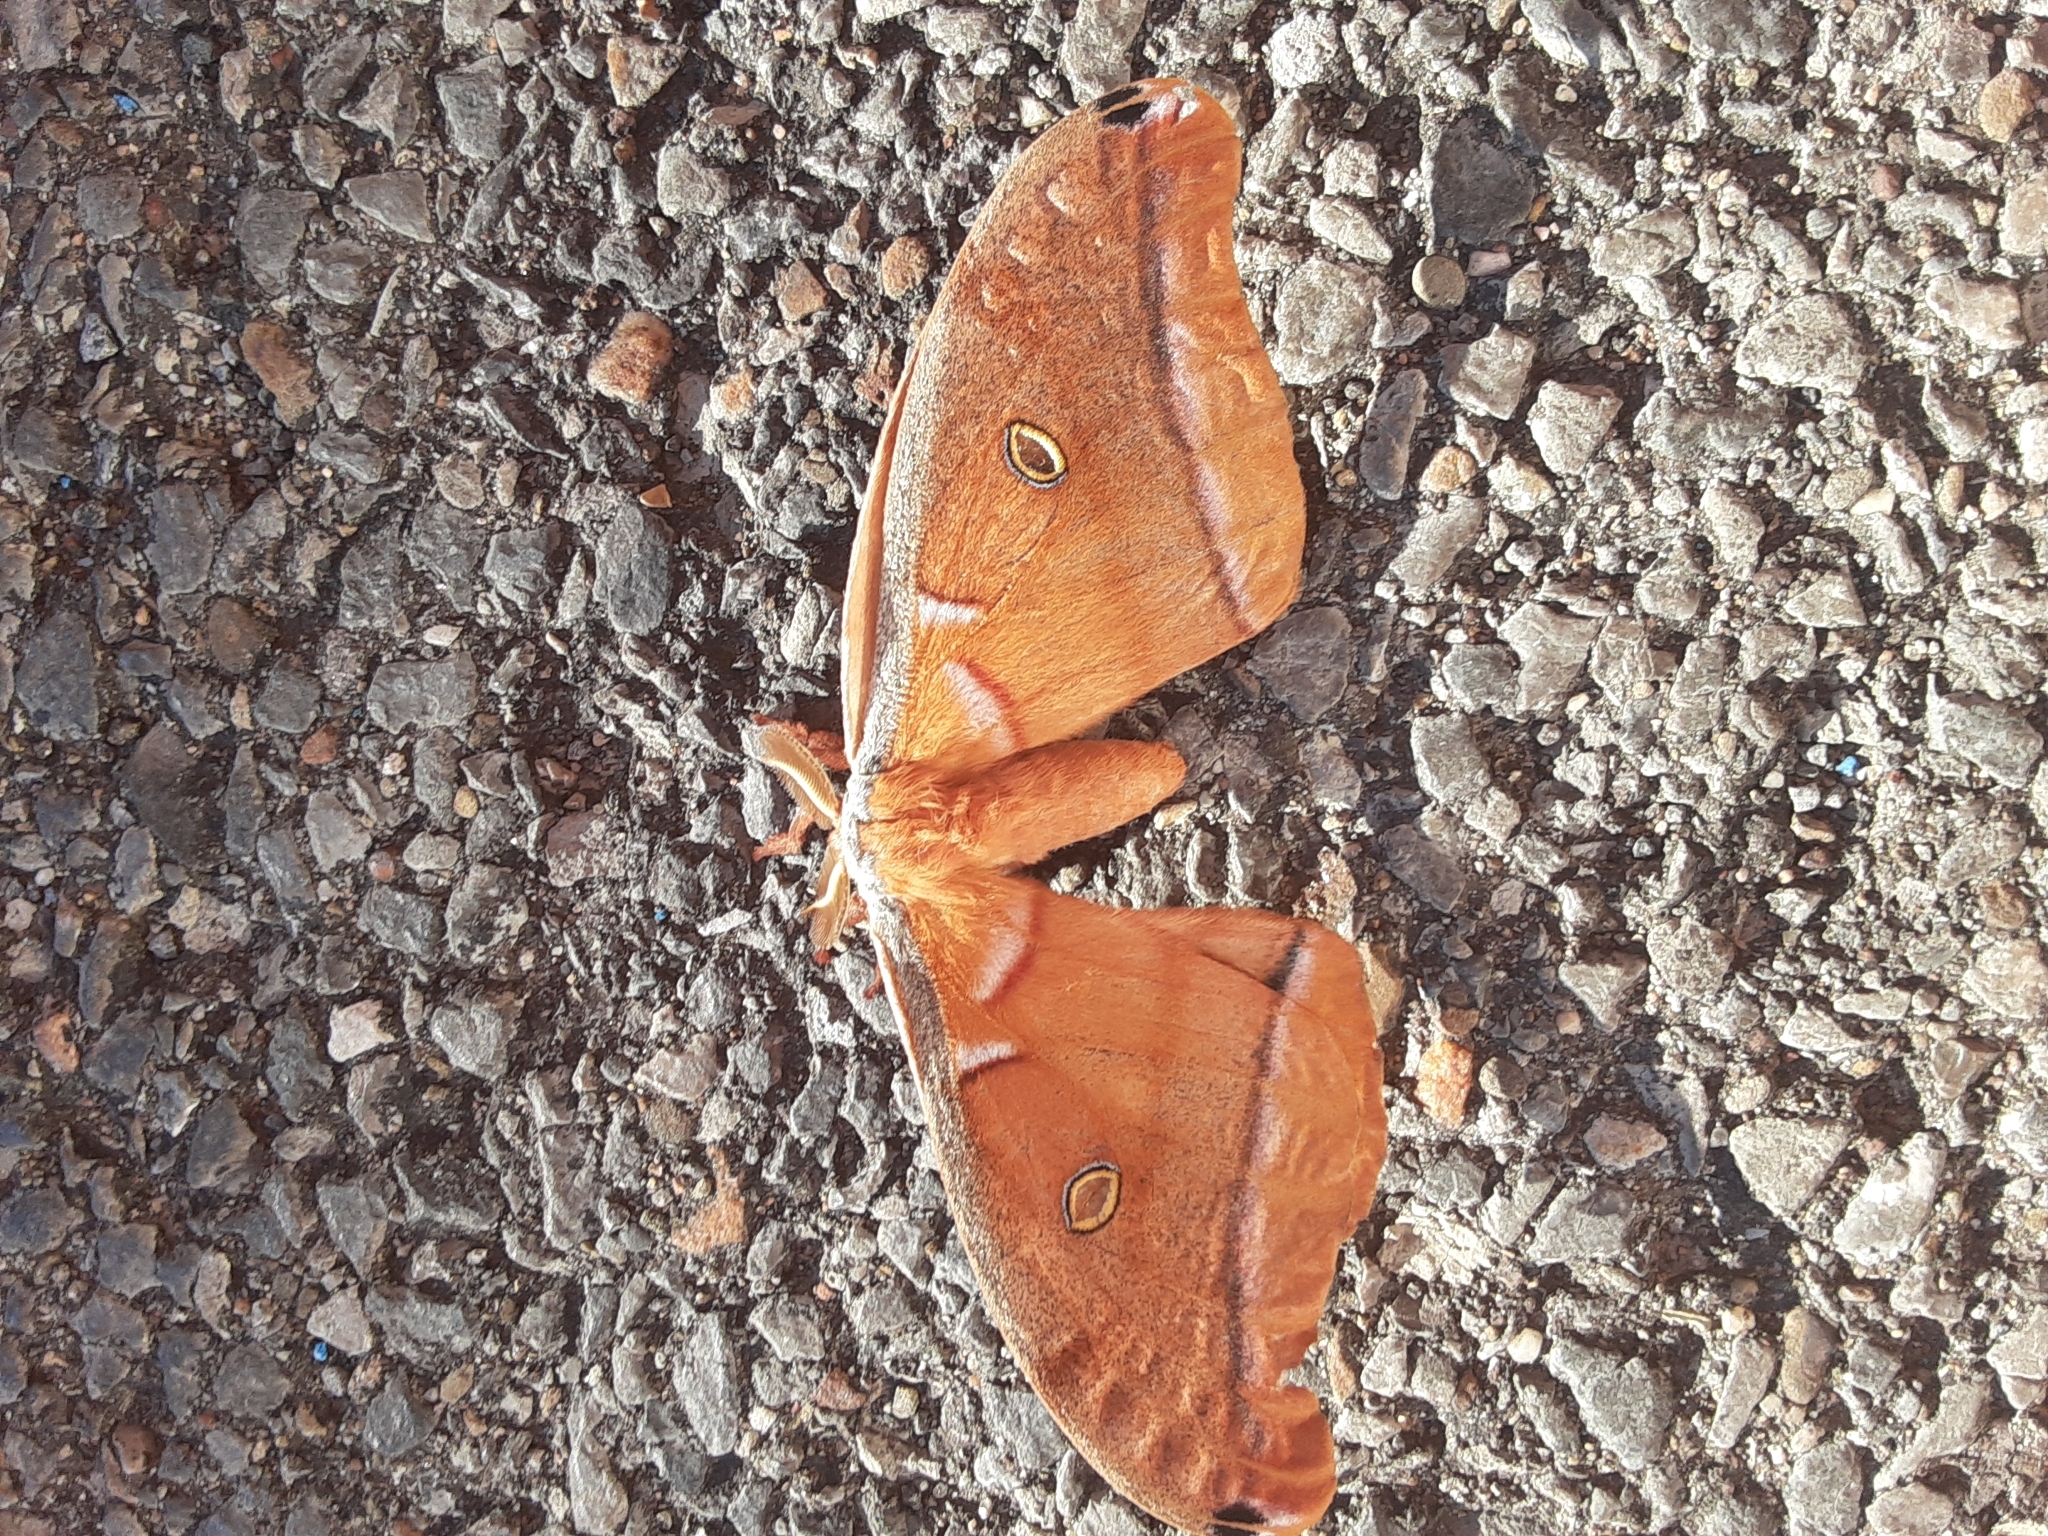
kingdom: Animalia
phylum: Arthropoda
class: Insecta
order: Lepidoptera
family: Saturniidae
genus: Antheraea
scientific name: Antheraea polyphemus
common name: Polyphemus moth
